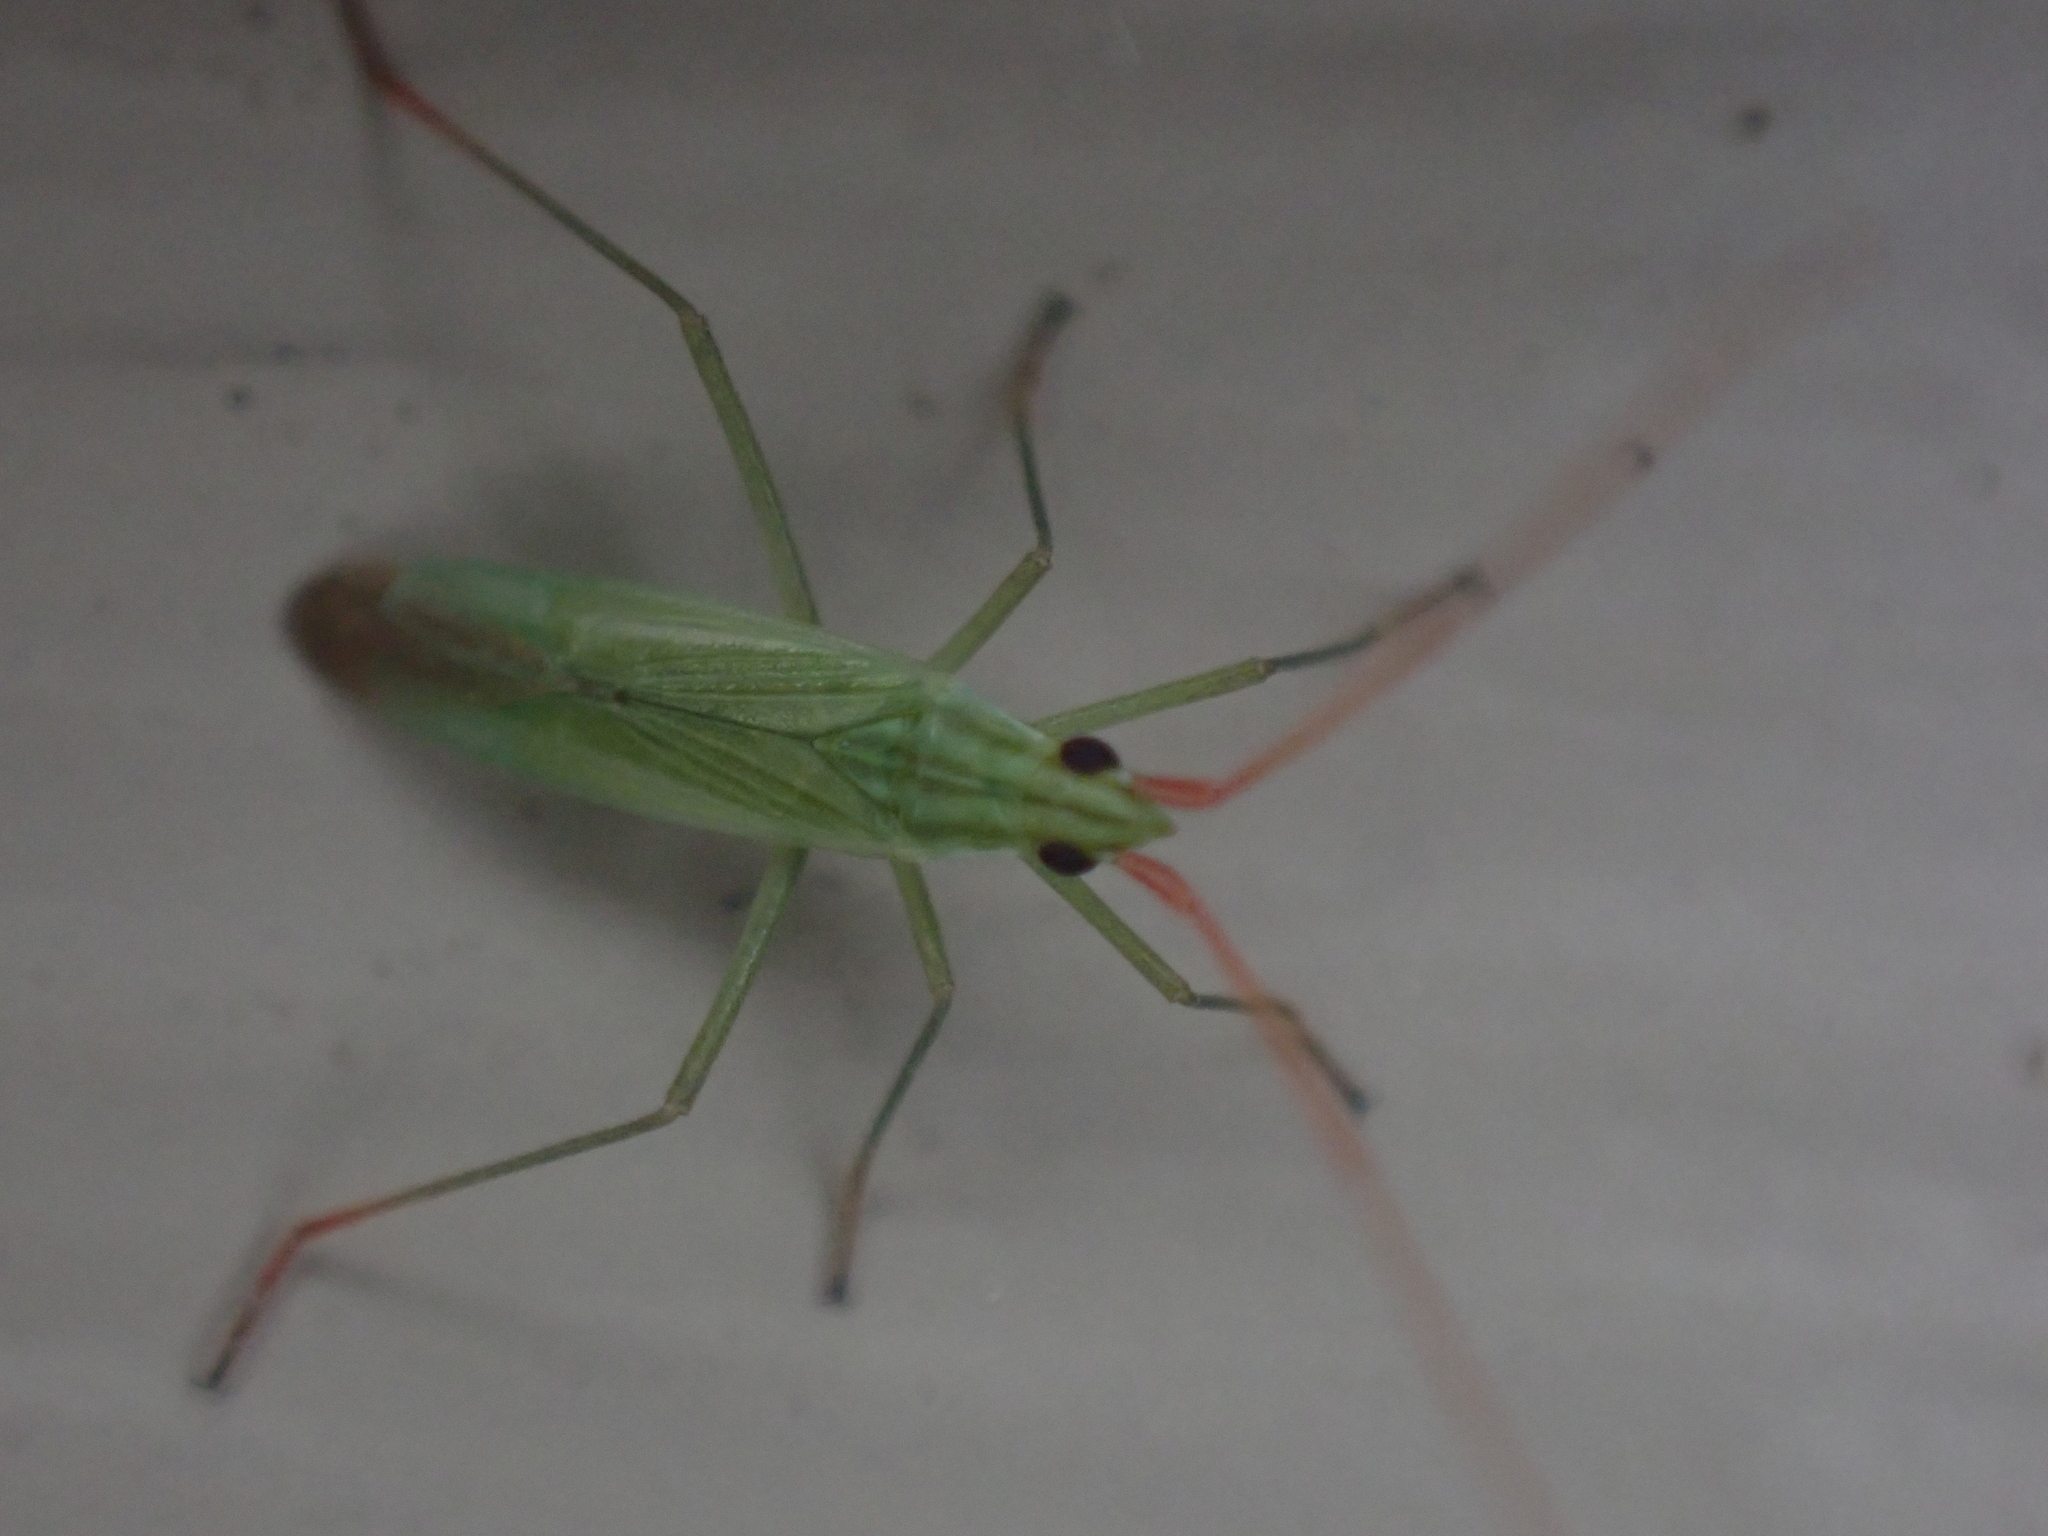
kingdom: Animalia
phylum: Arthropoda
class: Insecta
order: Hemiptera
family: Miridae
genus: Trigonotylus
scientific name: Trigonotylus caelestialium
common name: Rice leaf bug
